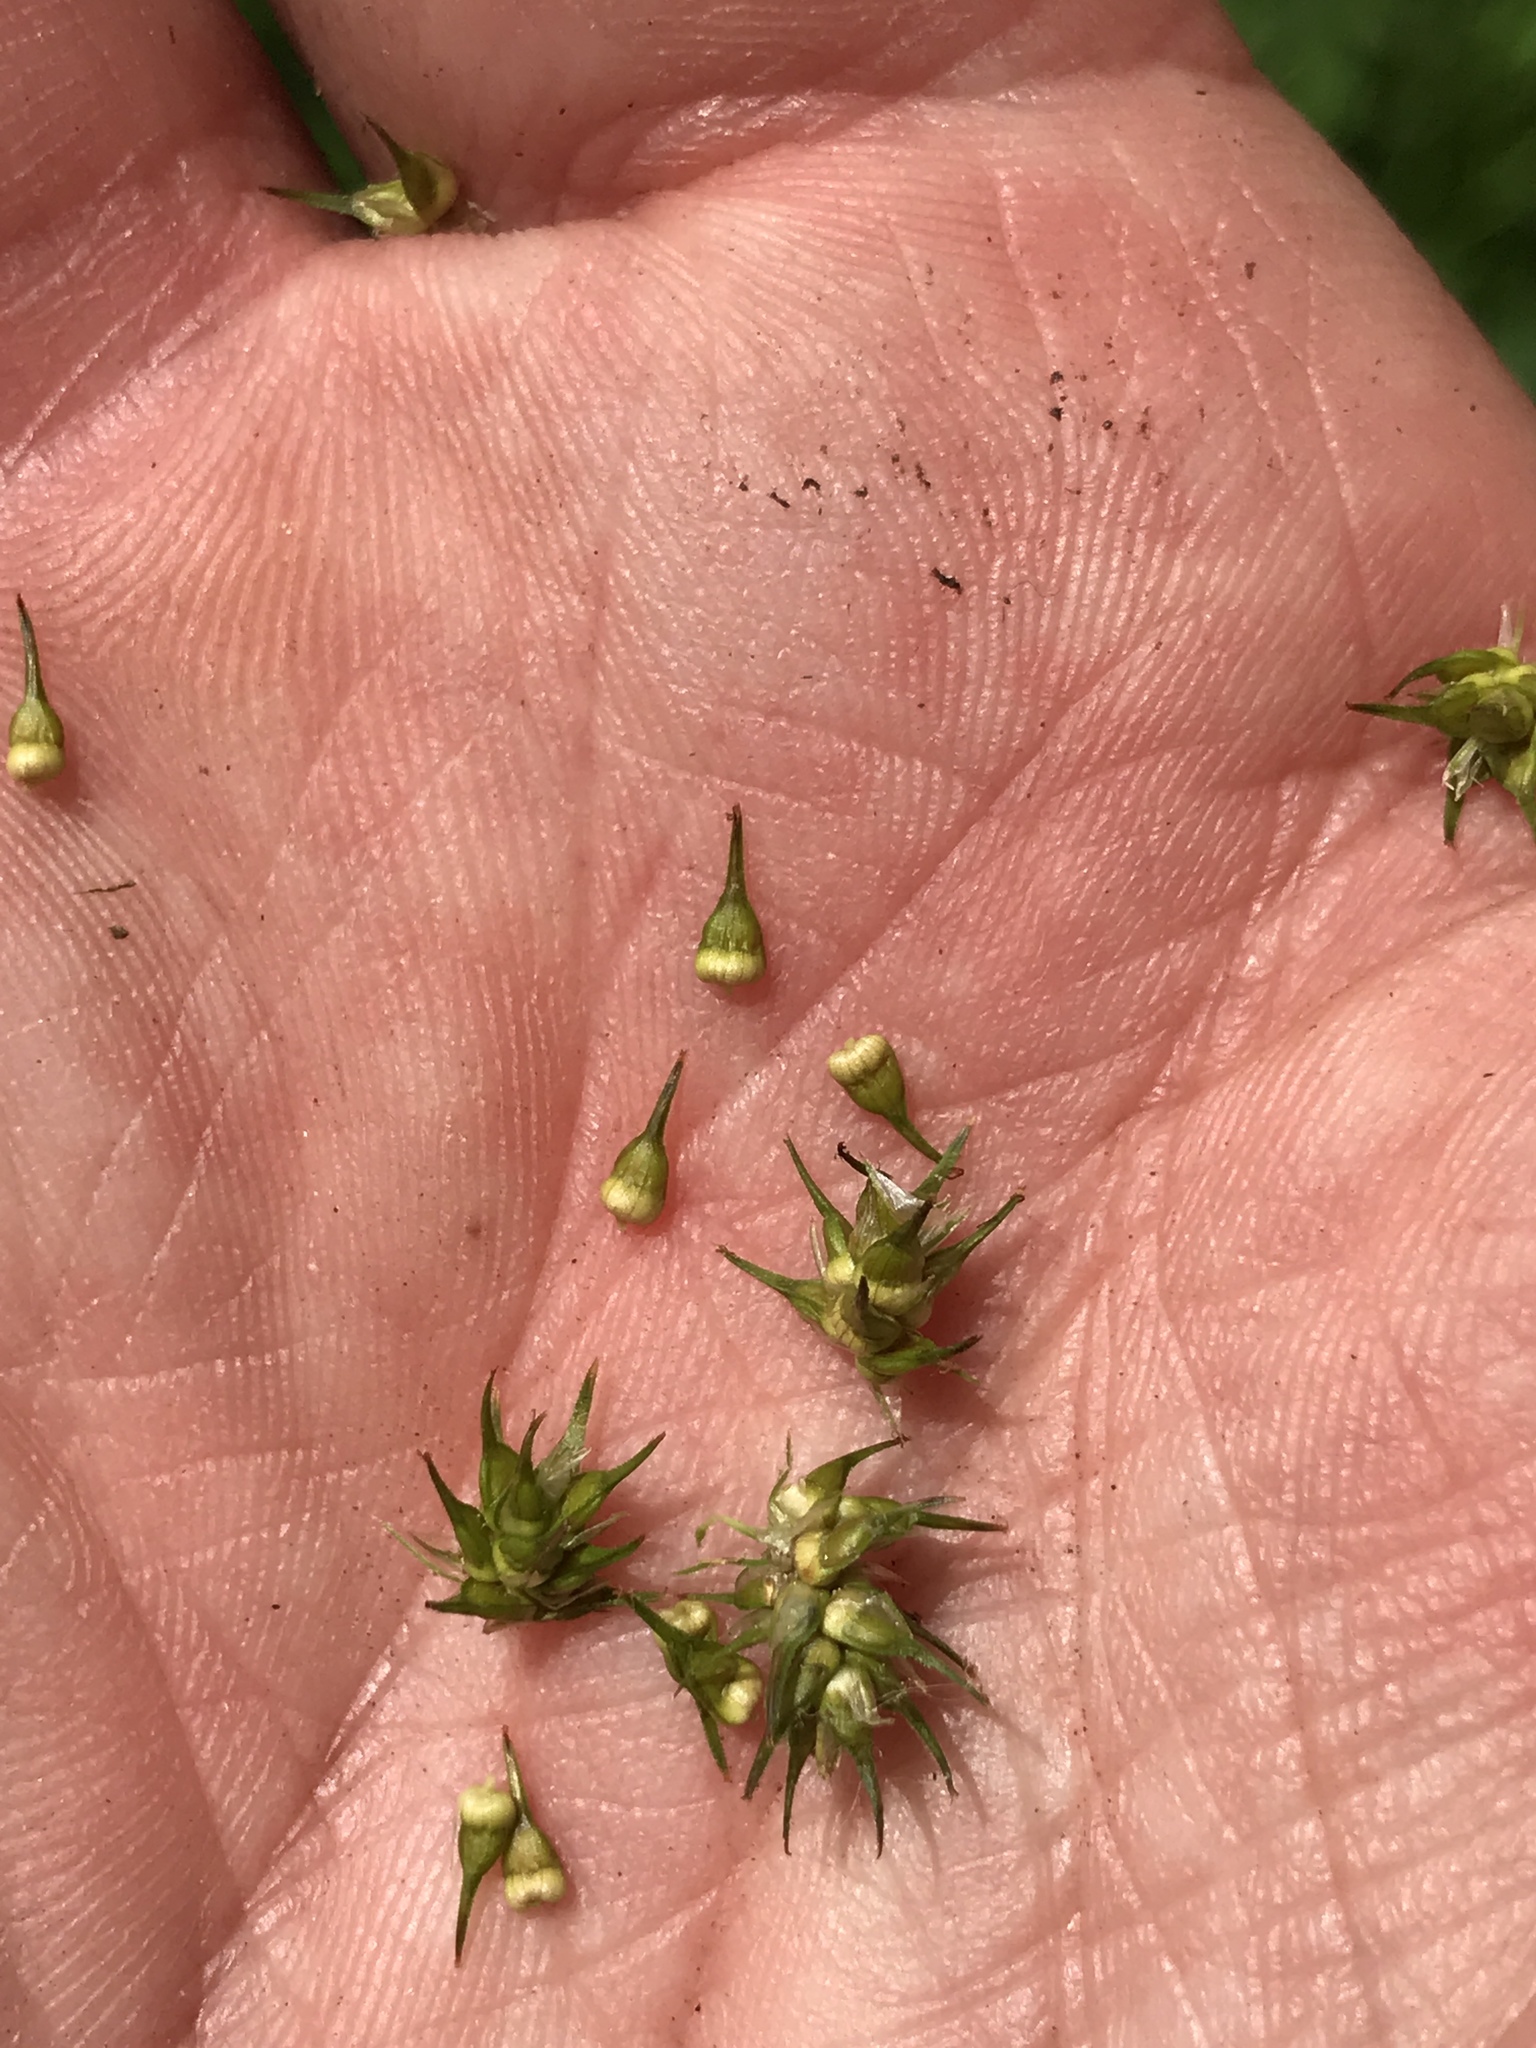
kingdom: Plantae
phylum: Tracheophyta
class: Liliopsida
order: Poales
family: Cyperaceae
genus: Carex
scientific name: Carex stipata
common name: Awl-fruited sedge
